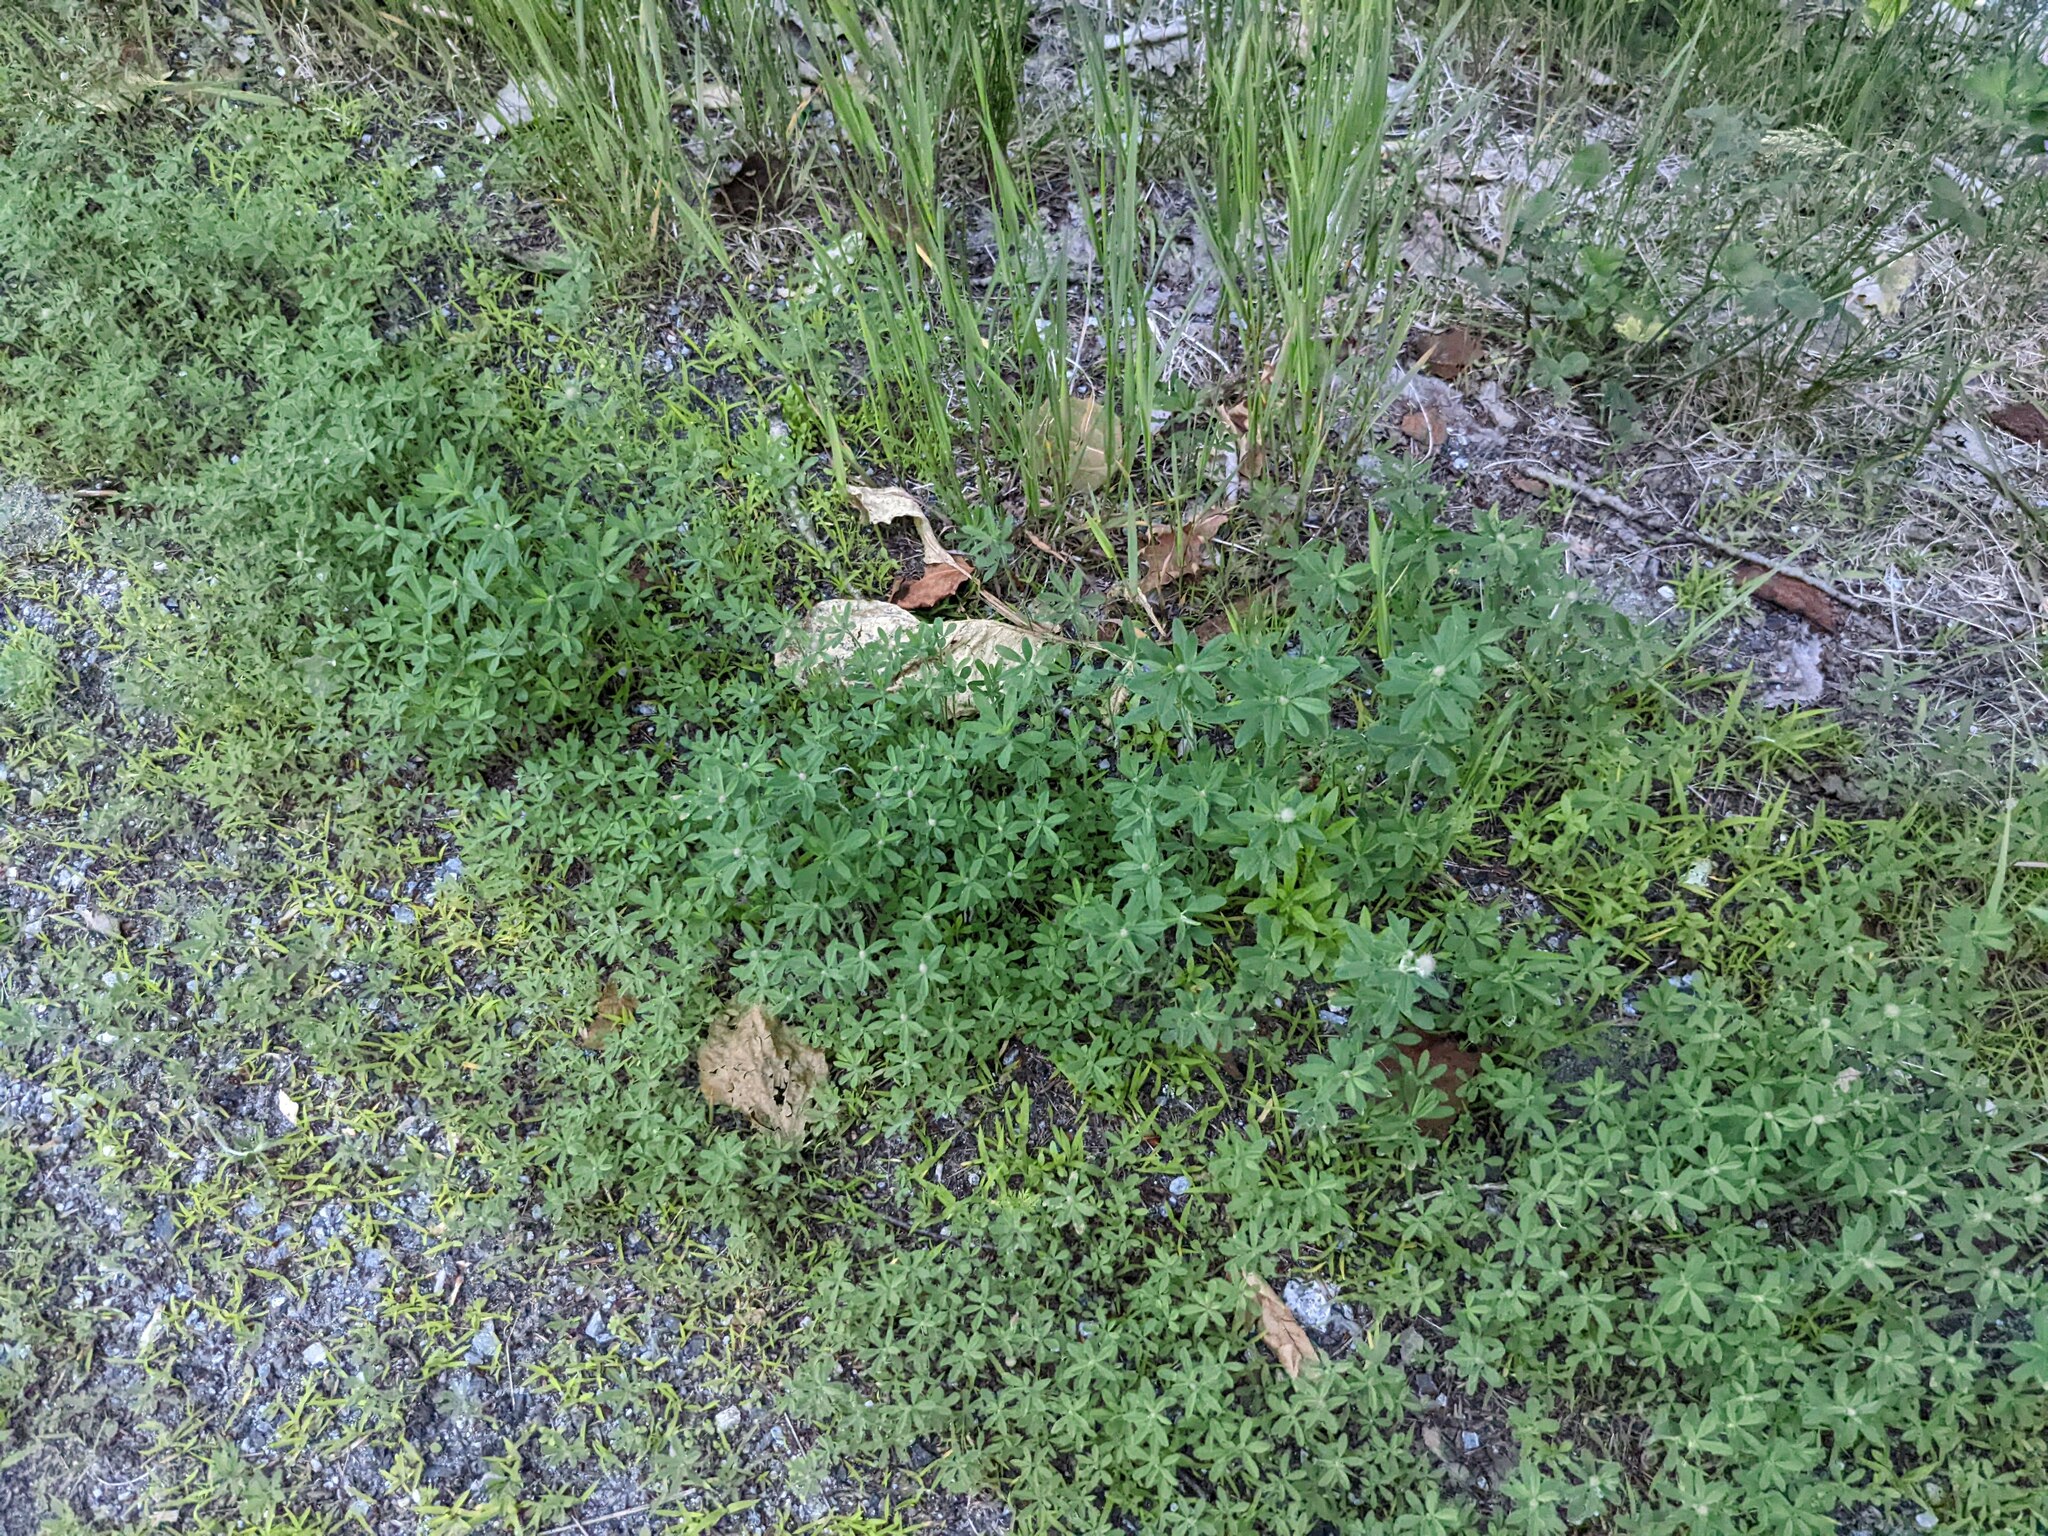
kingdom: Plantae
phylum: Tracheophyta
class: Magnoliopsida
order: Fabales
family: Fabaceae
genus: Trifolium
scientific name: Trifolium arvense
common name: Hare's-foot clover
